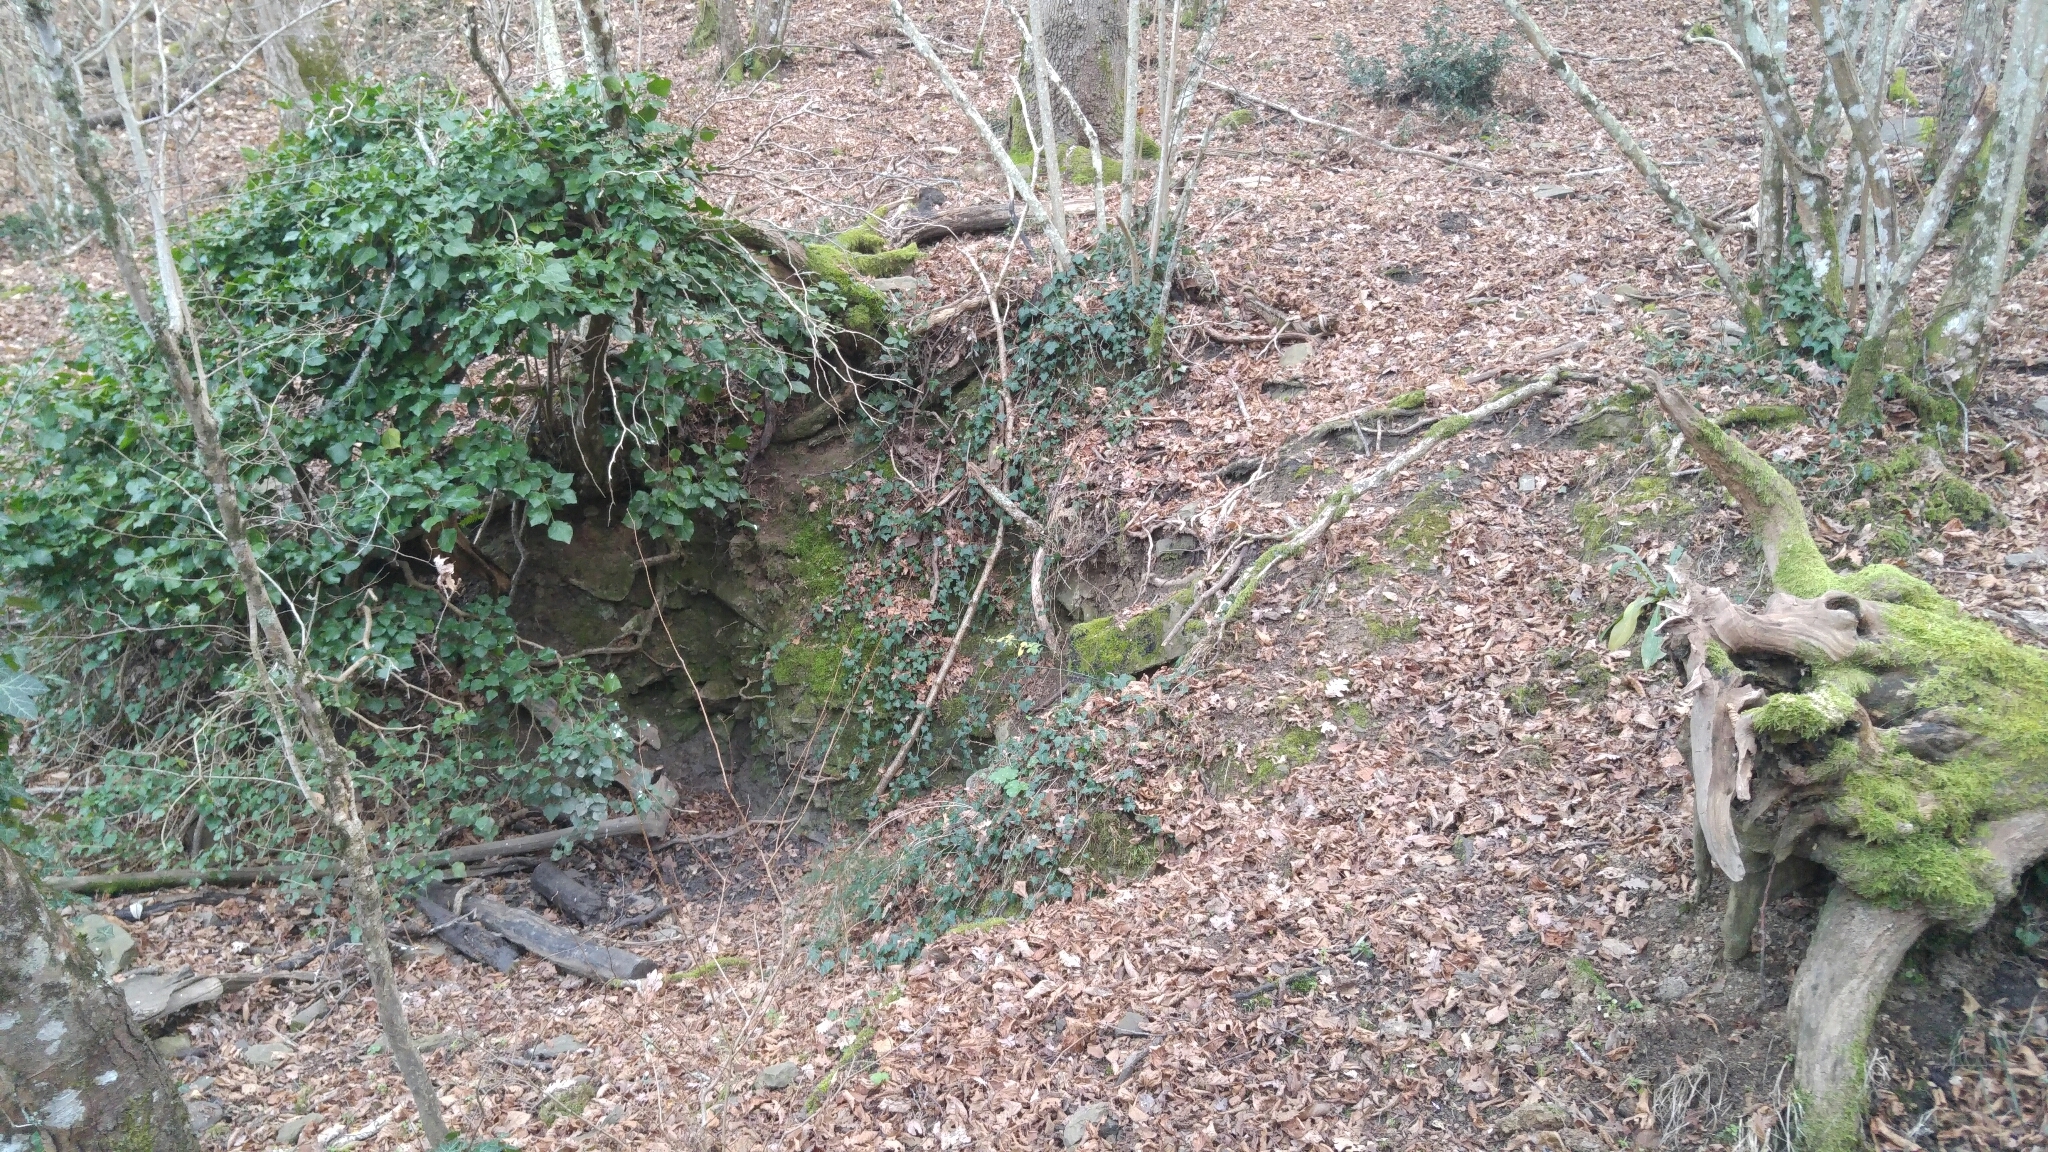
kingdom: Plantae
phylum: Tracheophyta
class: Magnoliopsida
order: Apiales
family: Araliaceae
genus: Hedera
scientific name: Hedera helix
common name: Ivy
